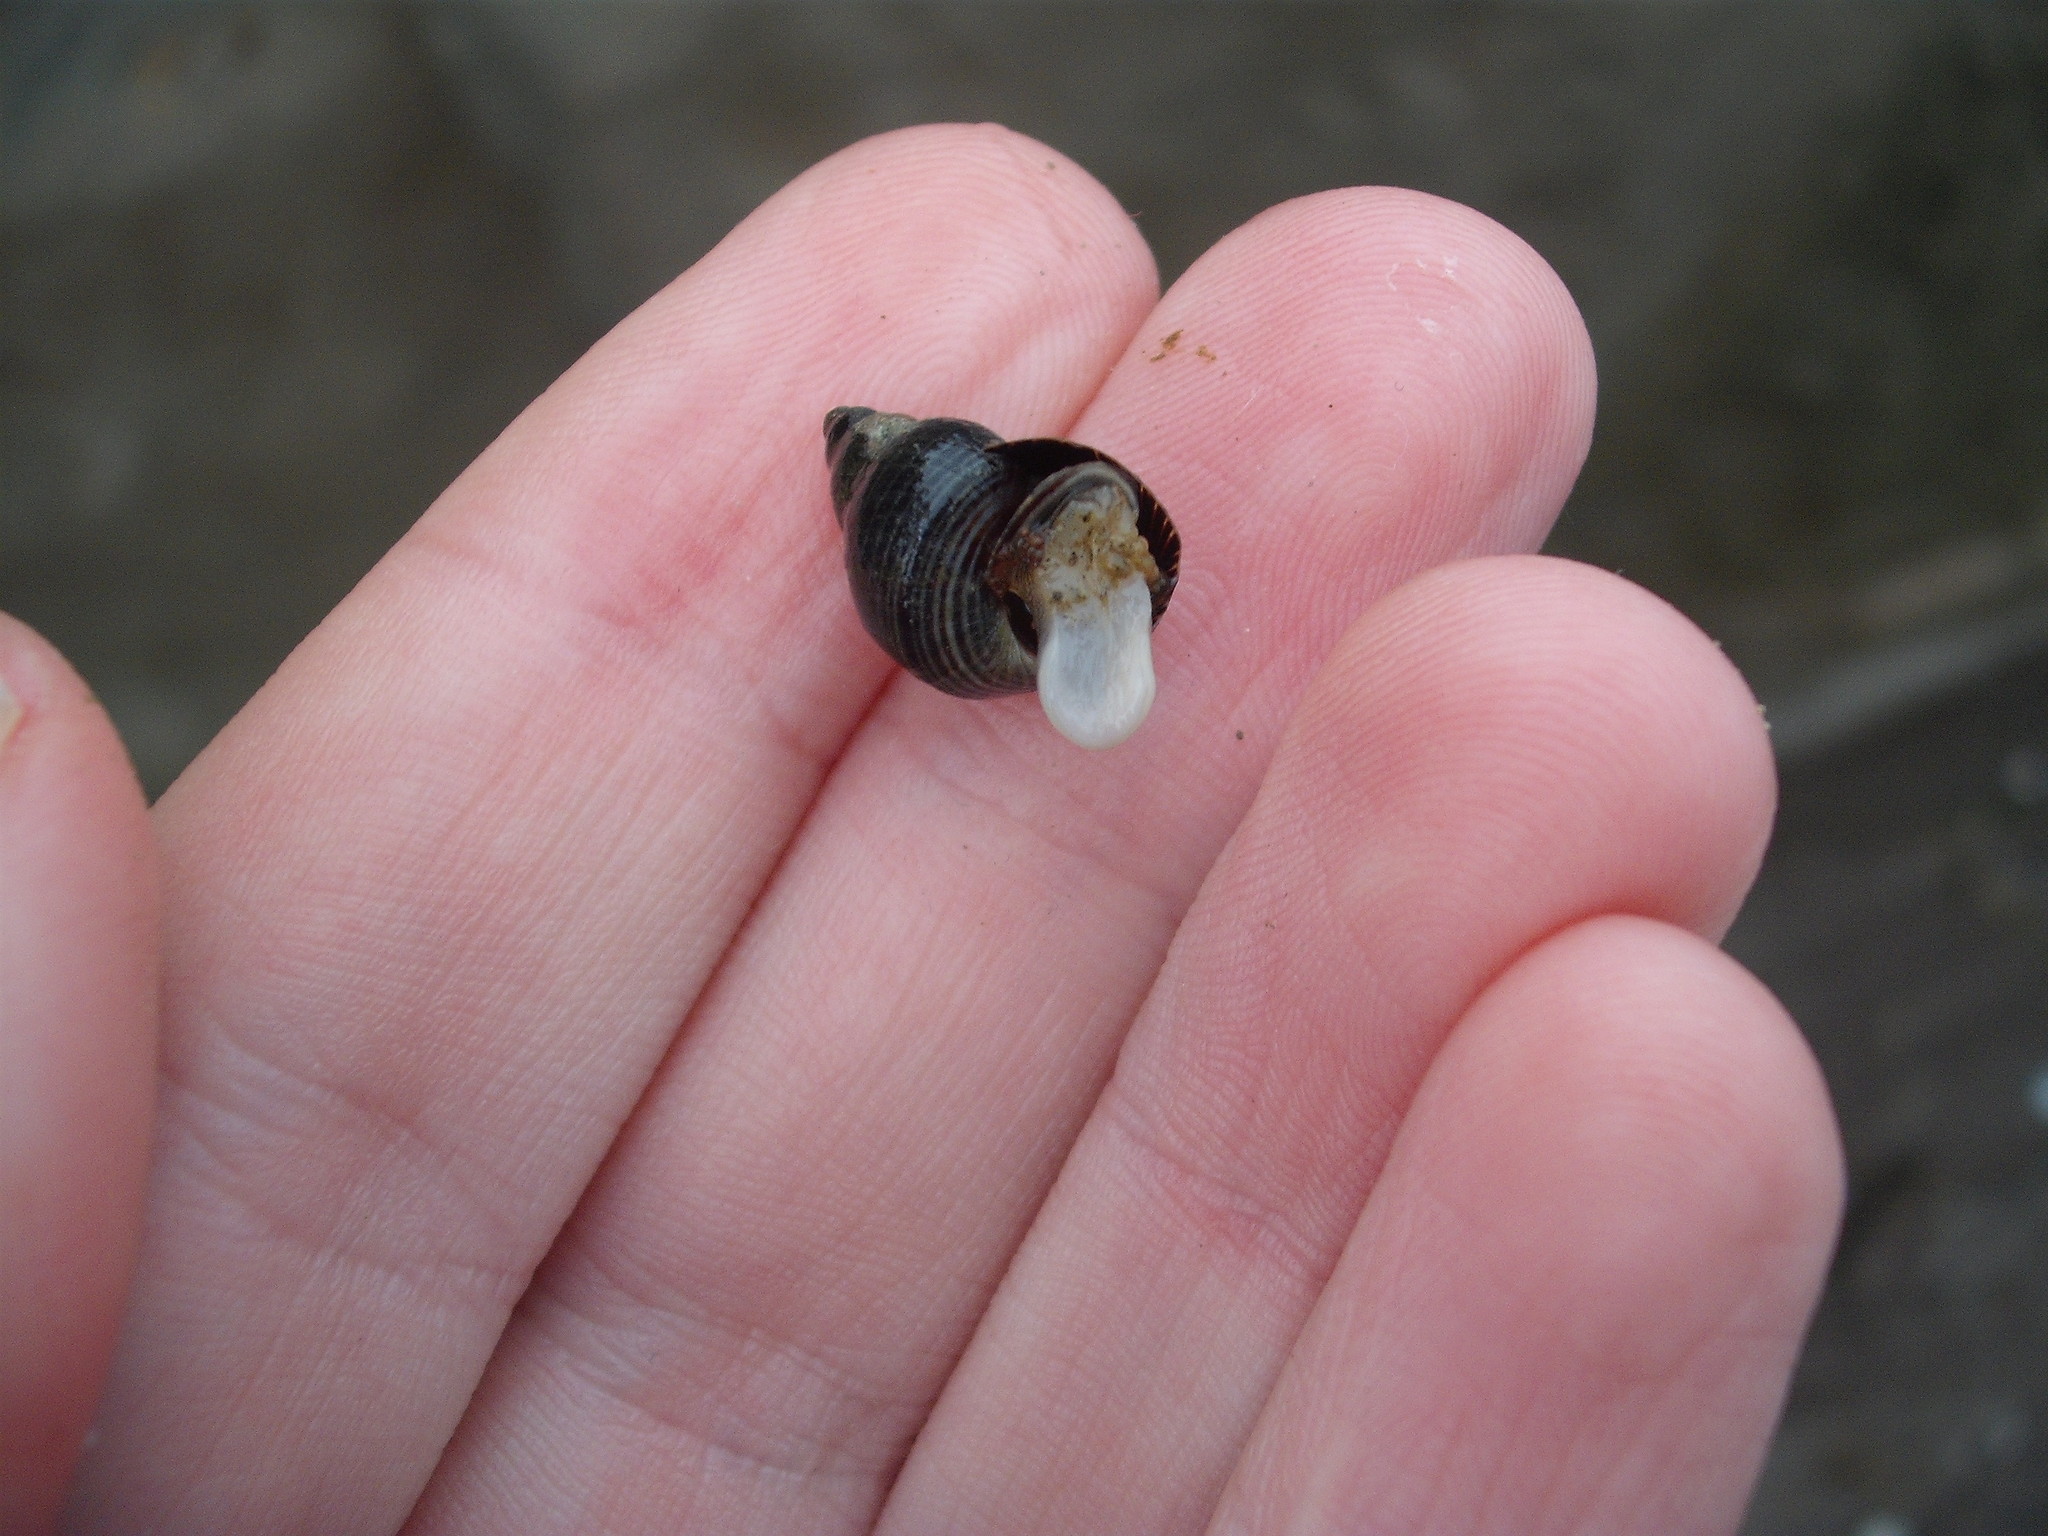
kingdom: Animalia
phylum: Mollusca
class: Gastropoda
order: Littorinimorpha
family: Littorinidae
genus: Austrolittorina
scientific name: Austrolittorina cincta
